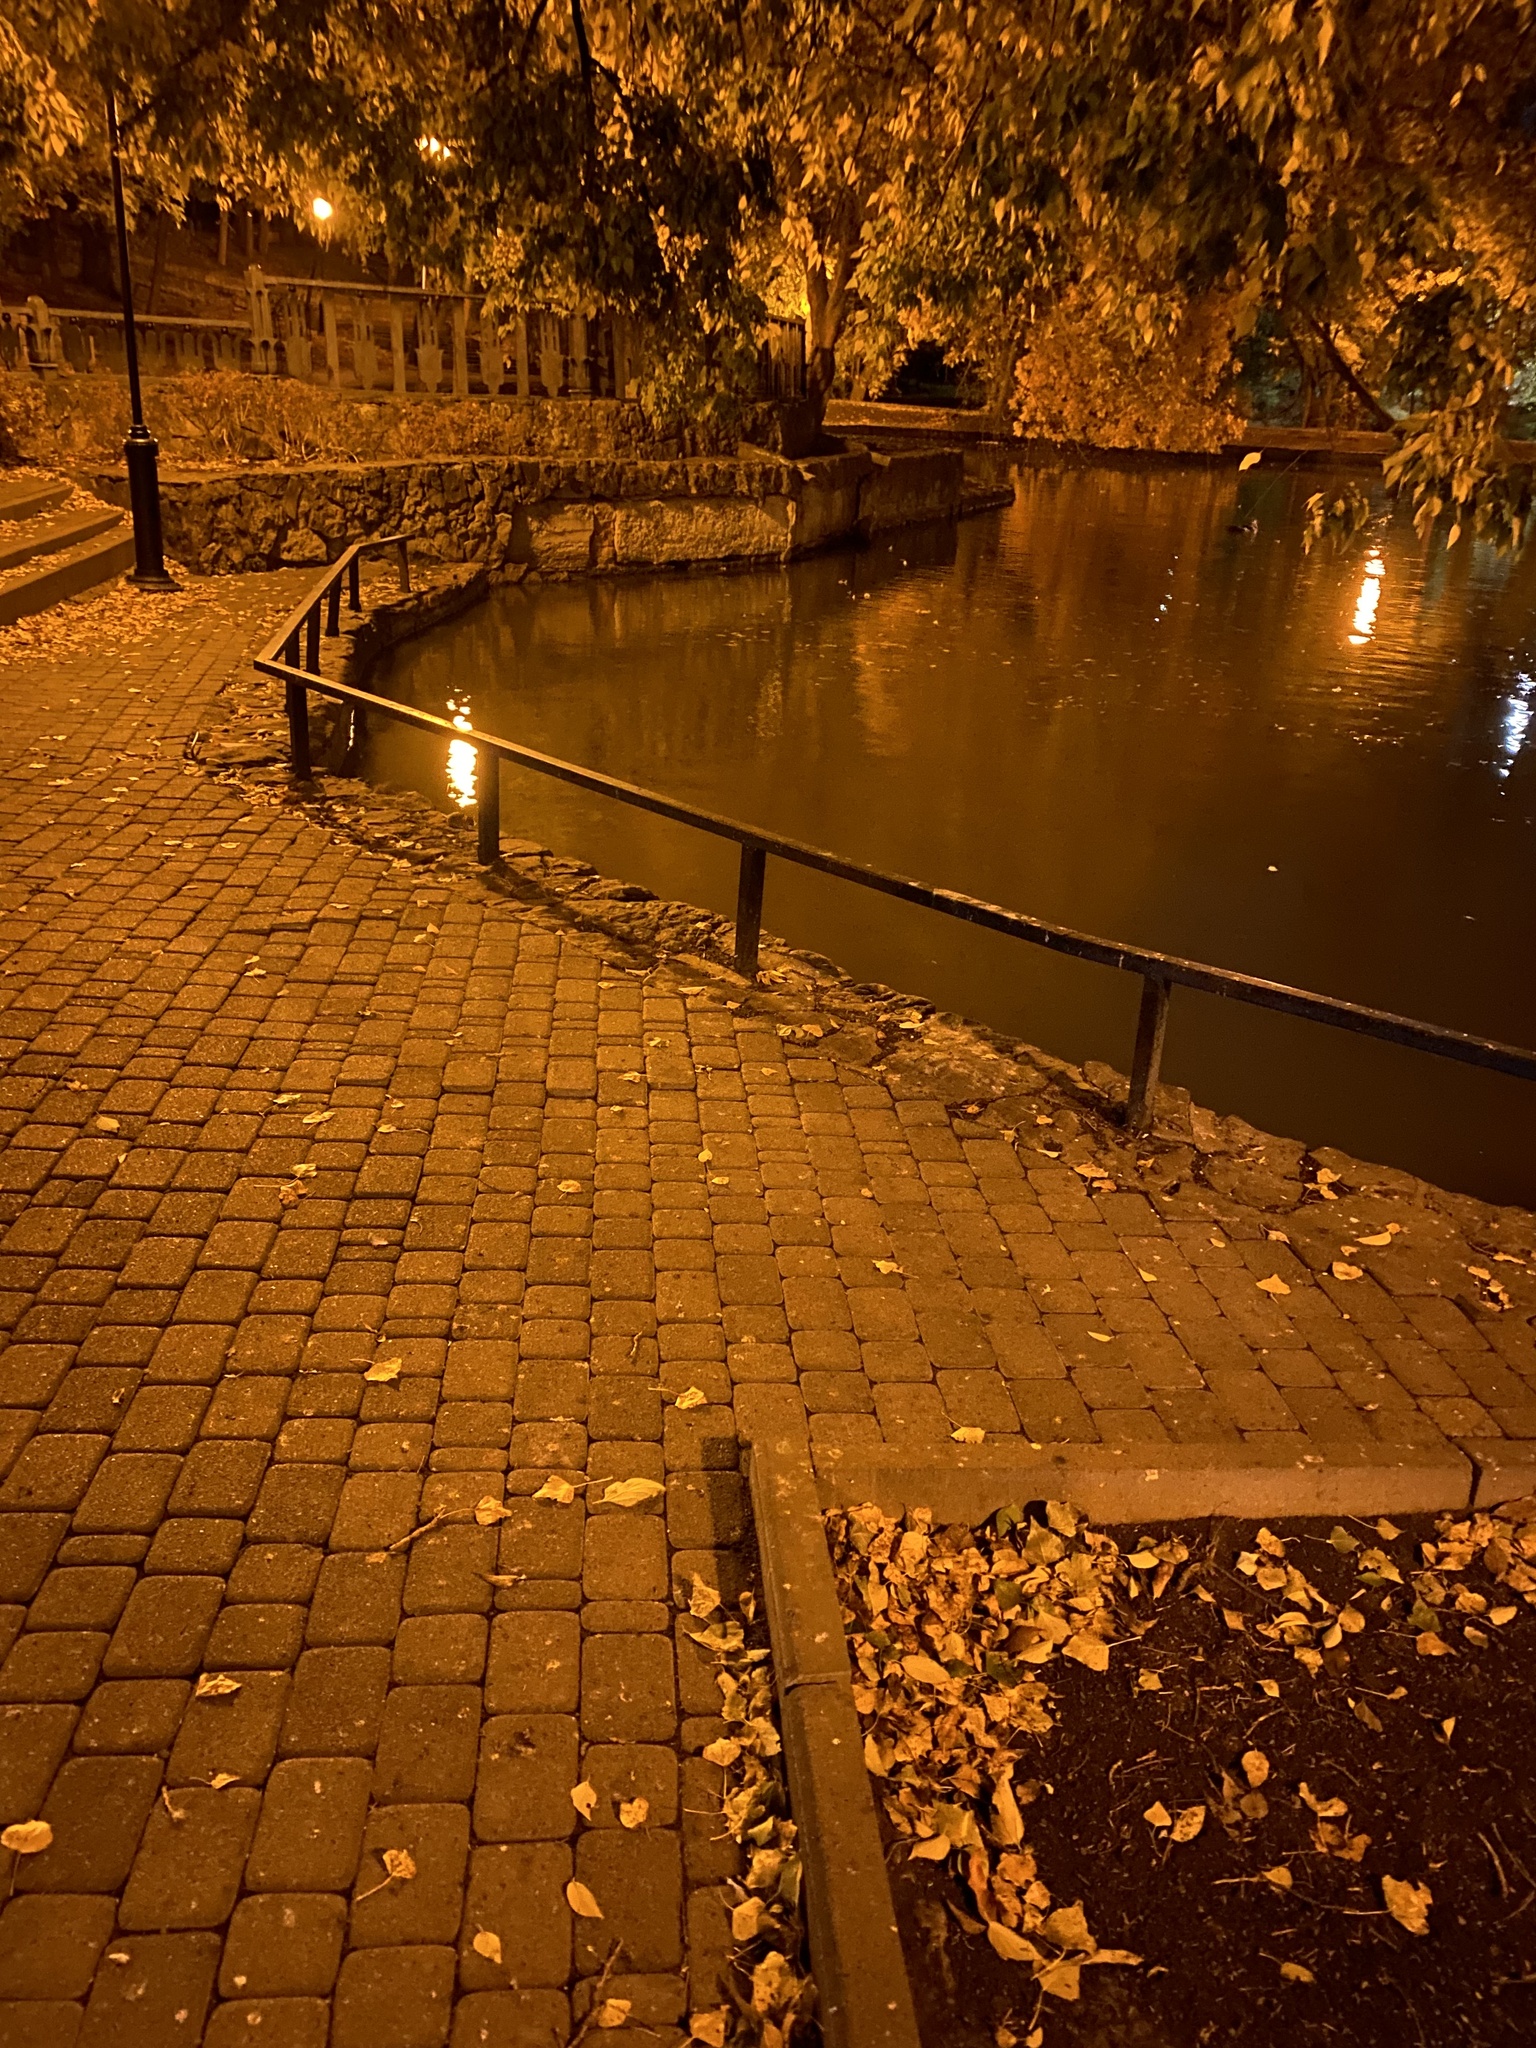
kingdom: Animalia
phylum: Chordata
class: Mammalia
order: Rodentia
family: Muridae
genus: Rattus
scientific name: Rattus norvegicus
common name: Brown rat
